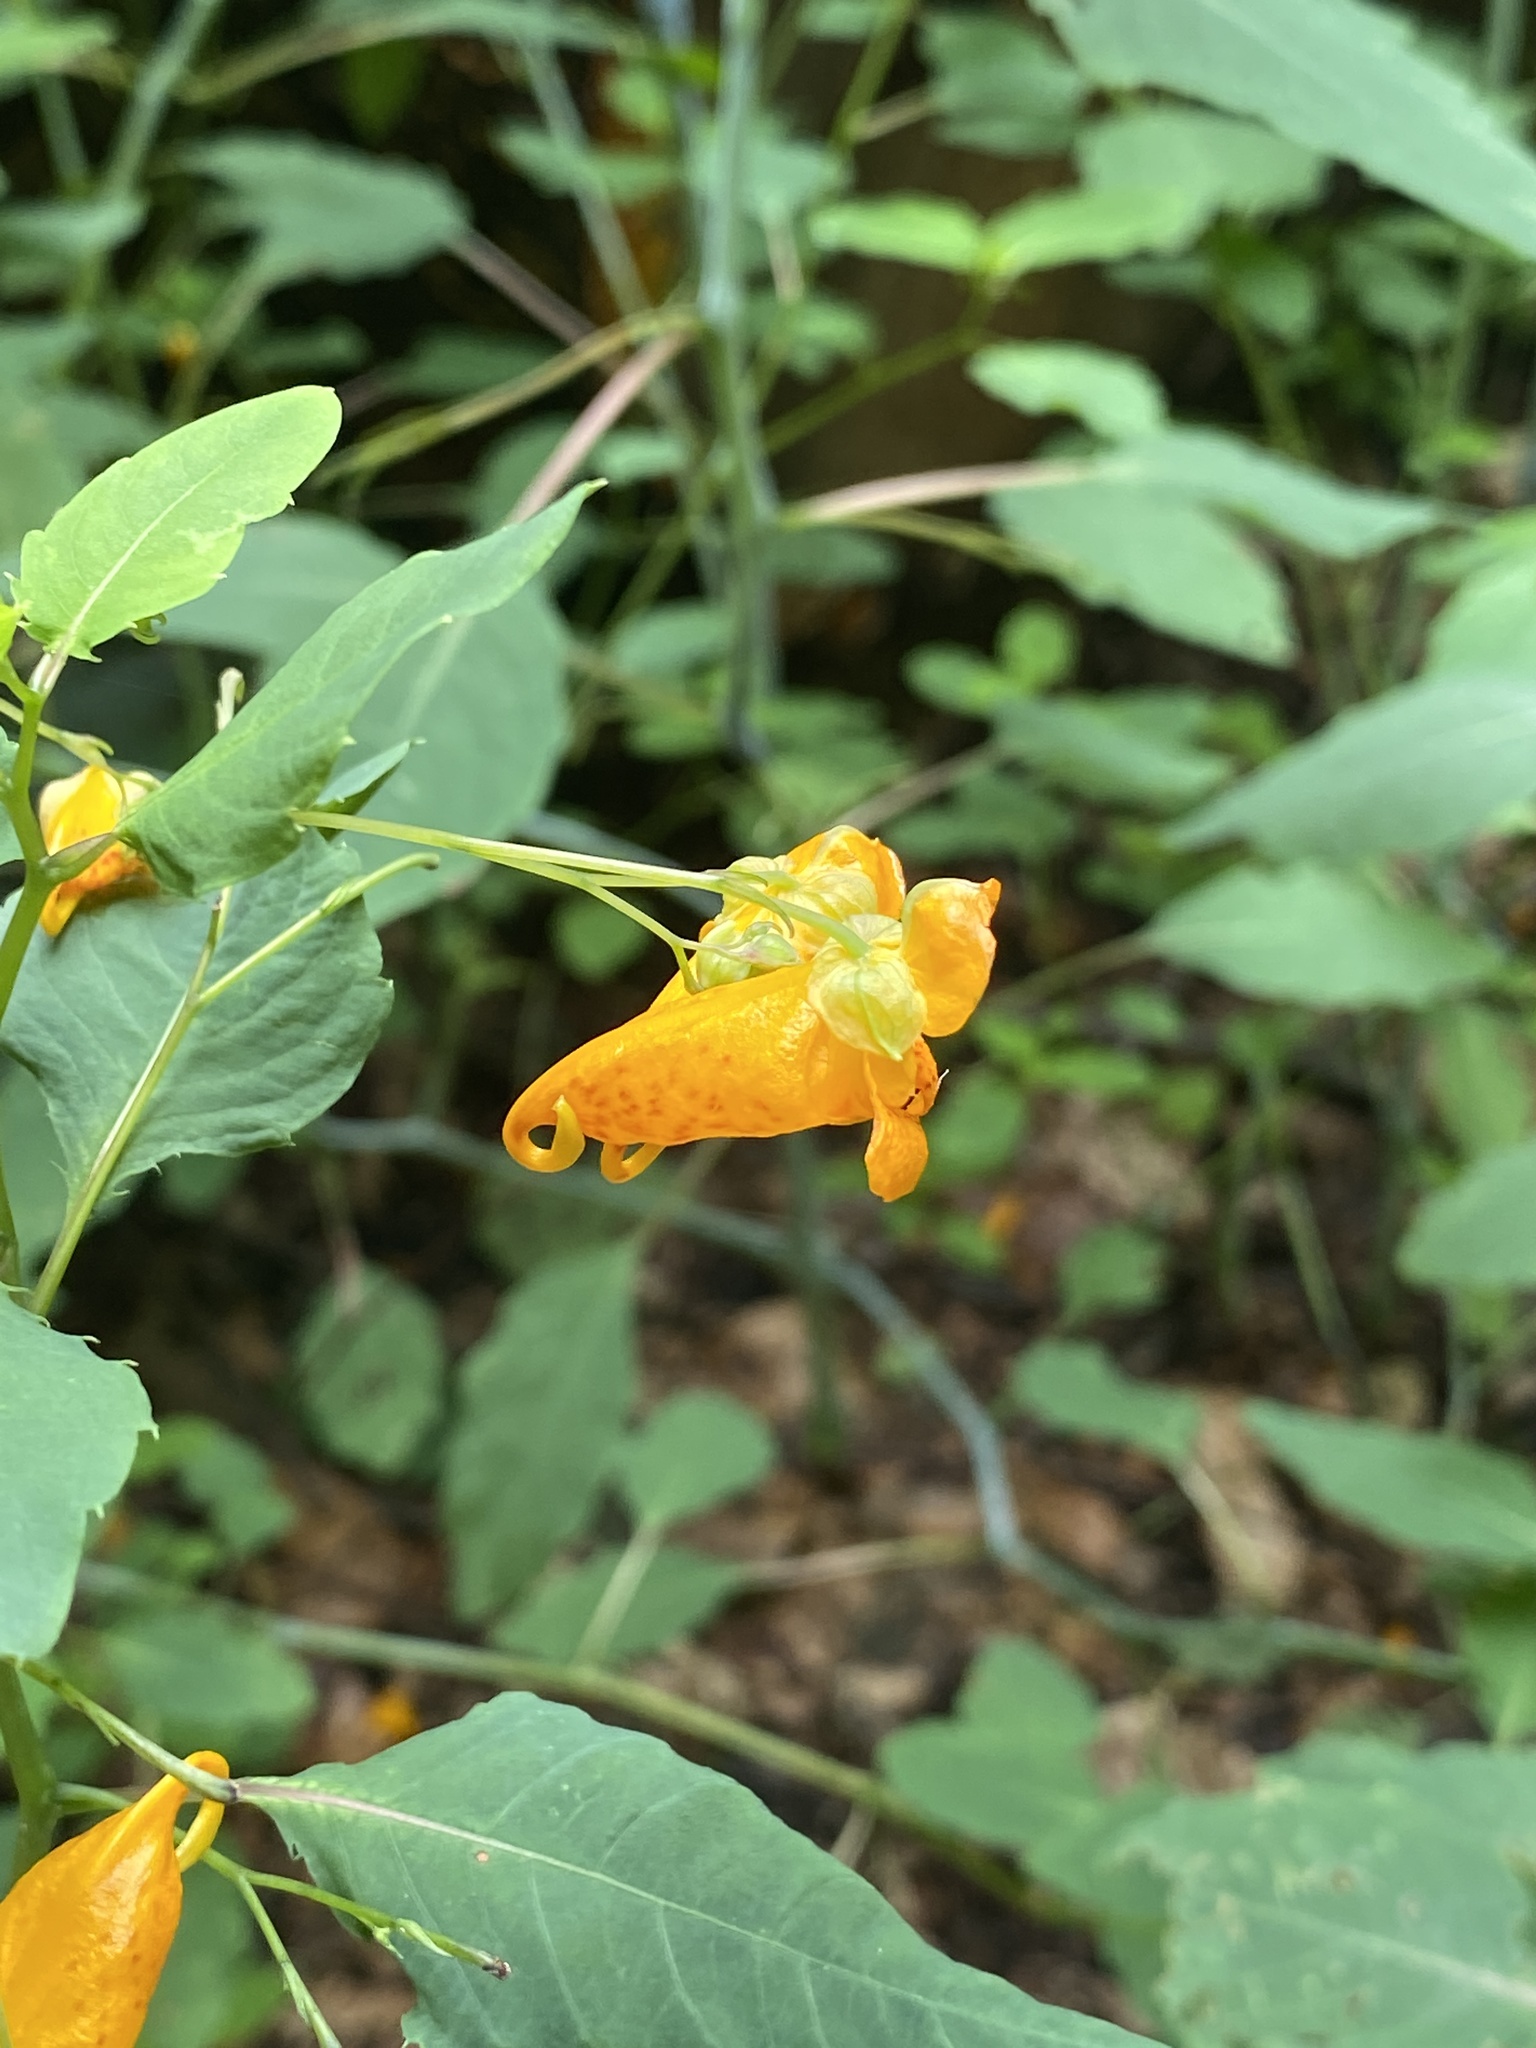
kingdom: Plantae
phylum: Tracheophyta
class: Magnoliopsida
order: Ericales
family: Balsaminaceae
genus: Impatiens
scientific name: Impatiens capensis
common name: Orange balsam
